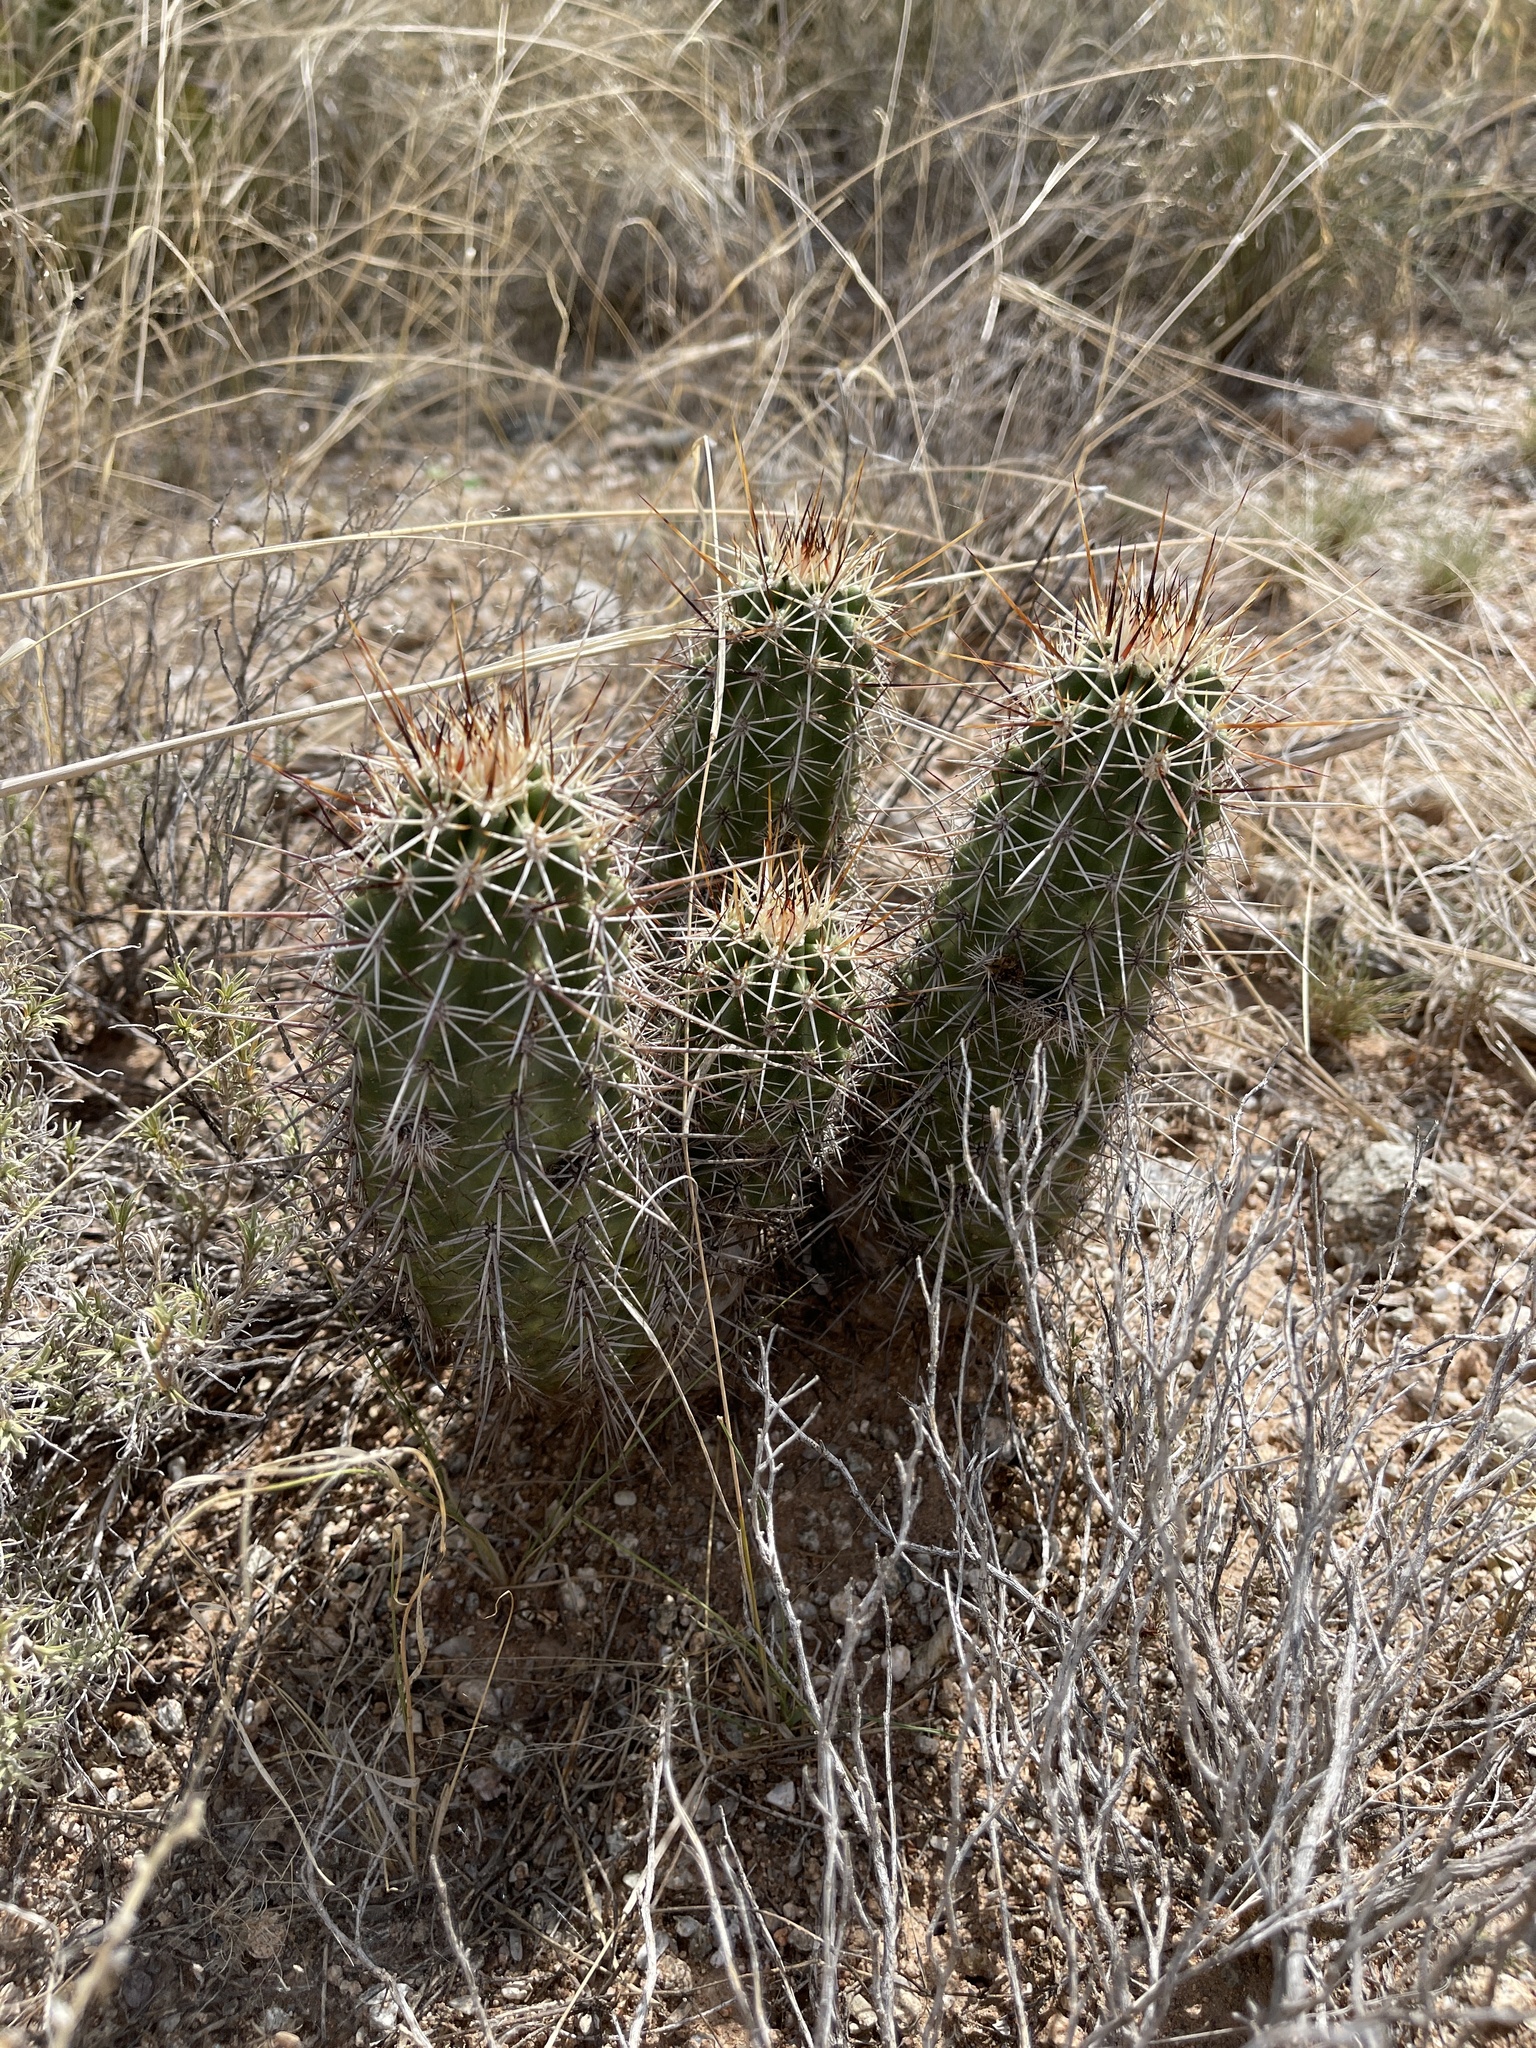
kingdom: Plantae
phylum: Tracheophyta
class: Magnoliopsida
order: Caryophyllales
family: Cactaceae
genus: Echinocereus
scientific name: Echinocereus fasciculatus
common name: Bundle hedgehog
